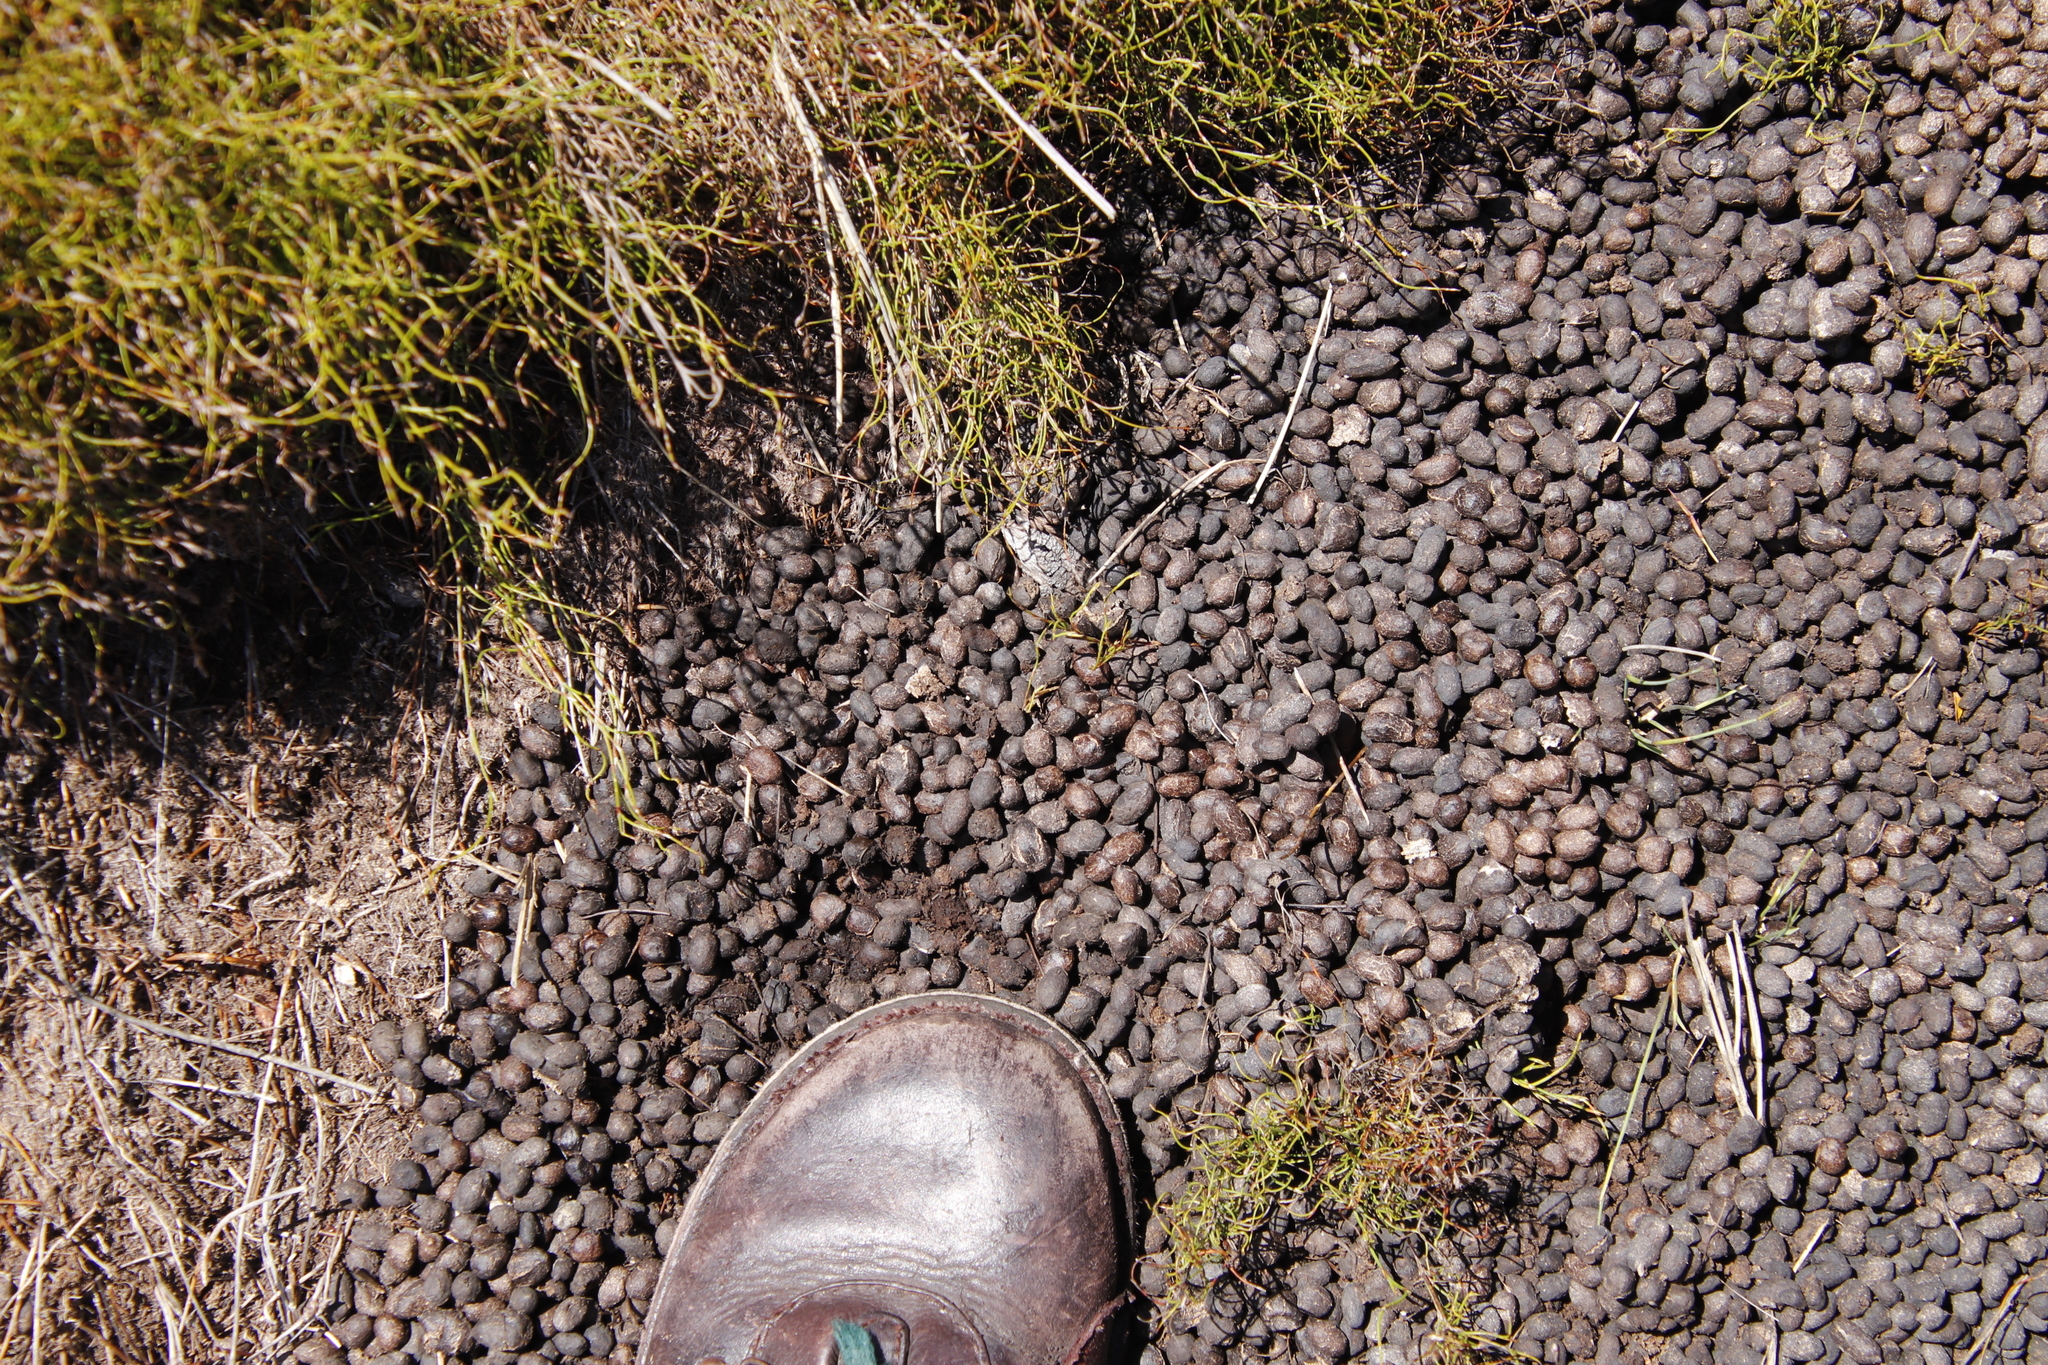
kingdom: Animalia
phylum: Chordata
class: Mammalia
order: Artiodactyla
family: Bovidae
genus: Oreotragus
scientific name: Oreotragus oreotragus
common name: Klipspringer
